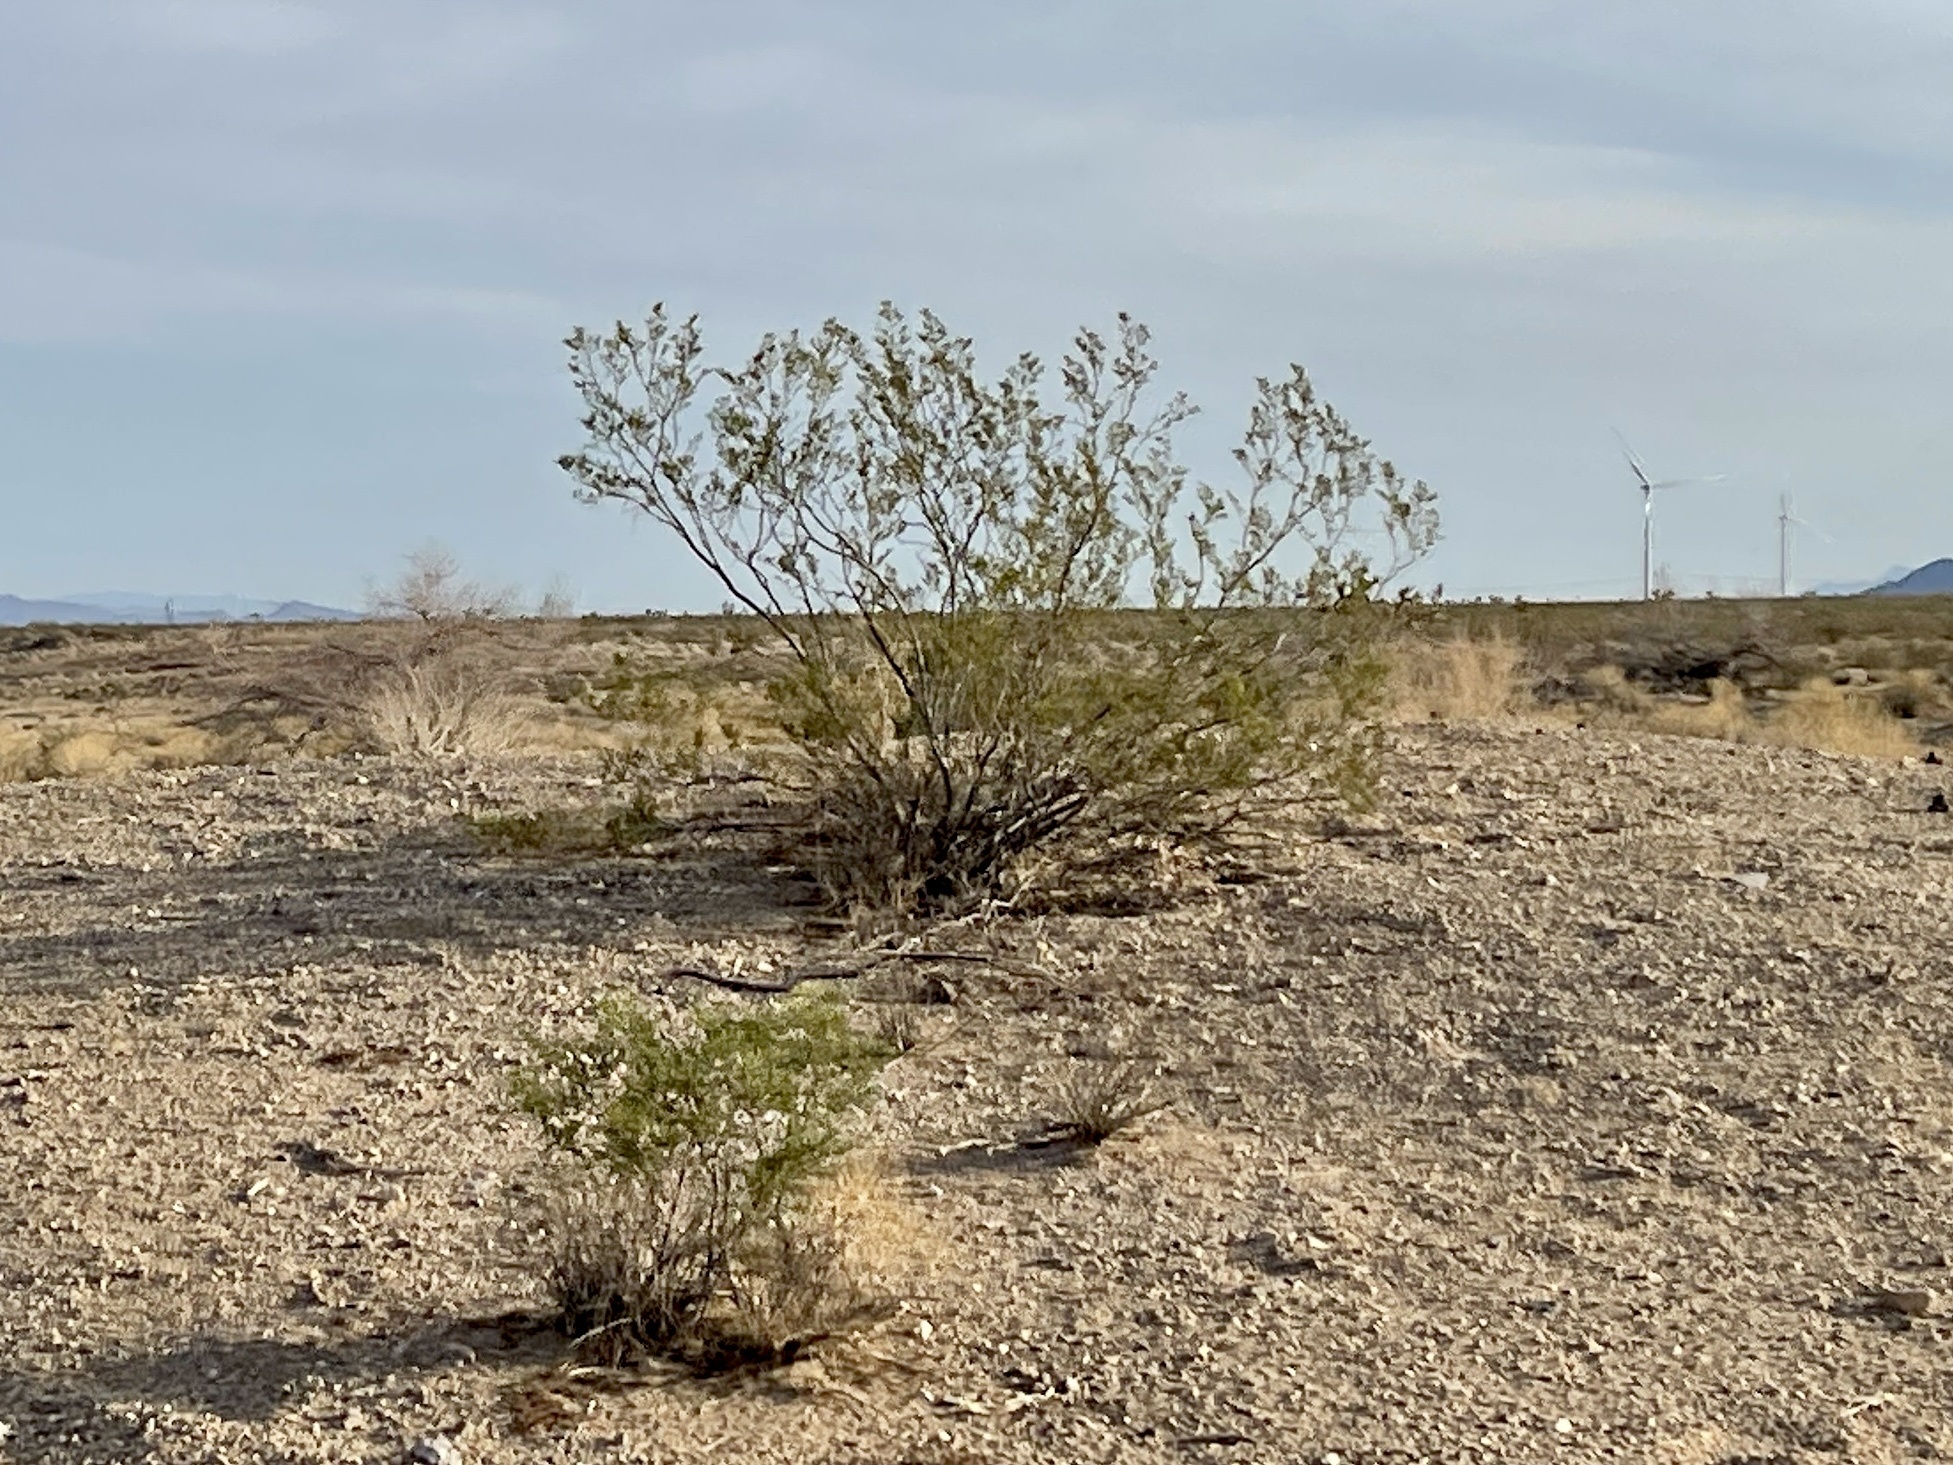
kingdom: Plantae
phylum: Tracheophyta
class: Magnoliopsida
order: Zygophyllales
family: Zygophyllaceae
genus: Larrea
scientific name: Larrea tridentata
